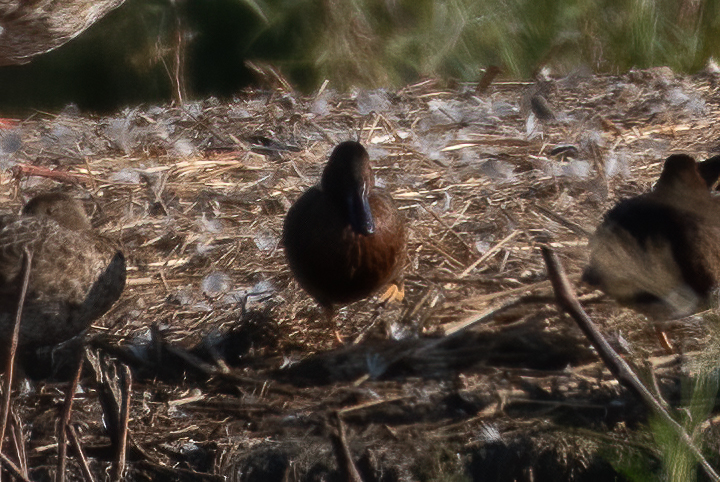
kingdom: Animalia
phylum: Chordata
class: Aves
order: Anseriformes
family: Anatidae
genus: Spatula
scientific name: Spatula cyanoptera
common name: Cinnamon teal
